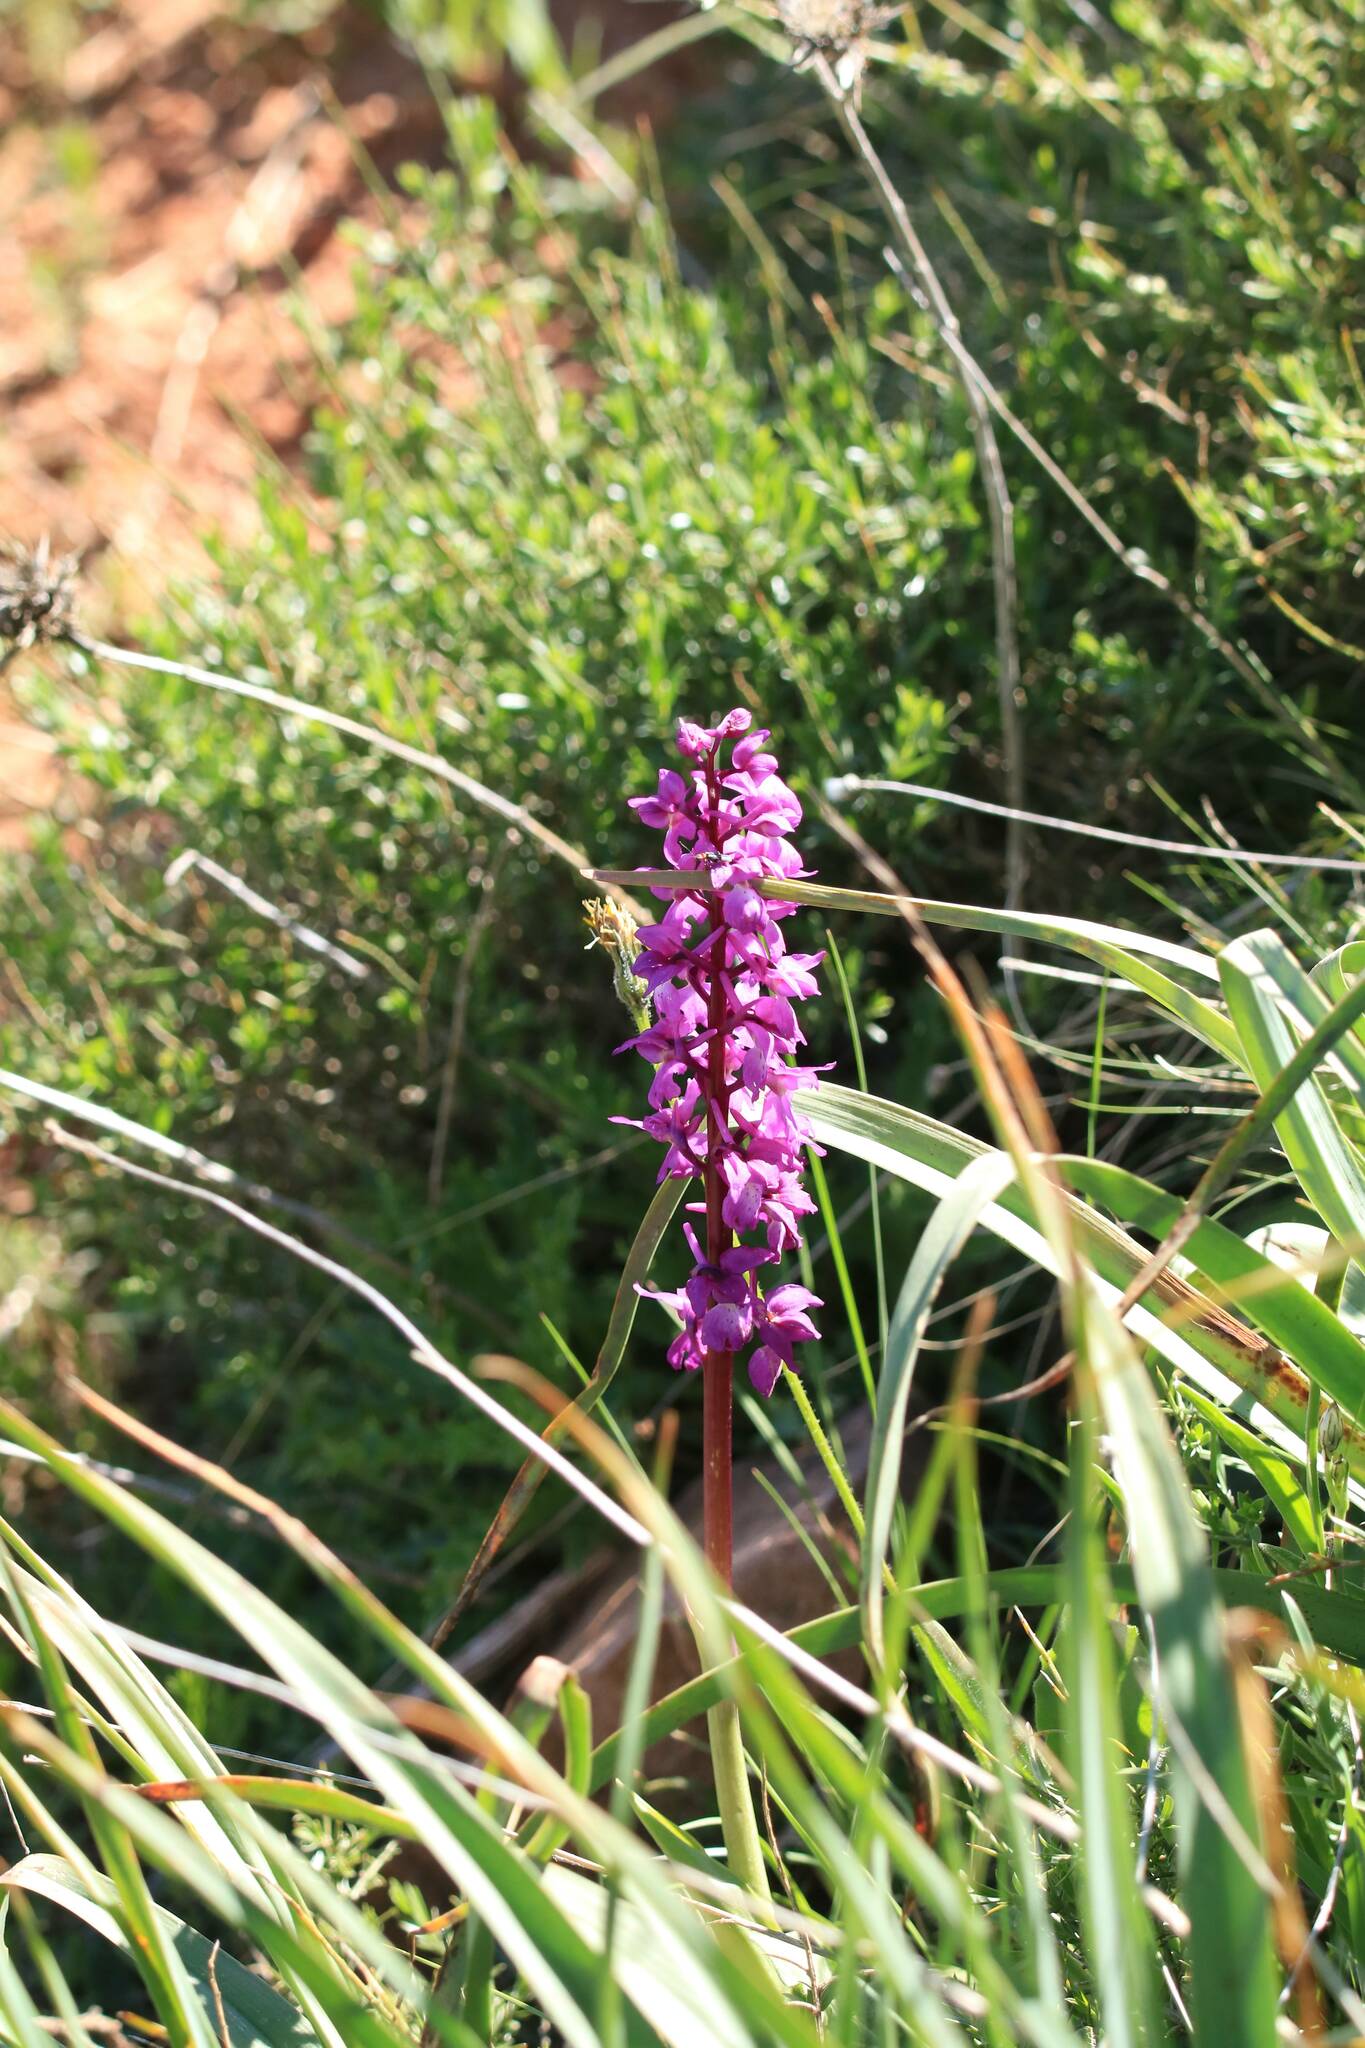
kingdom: Plantae
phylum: Tracheophyta
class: Liliopsida
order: Asparagales
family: Orchidaceae
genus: Orchis
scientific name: Orchis mascula
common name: Early-purple orchid
